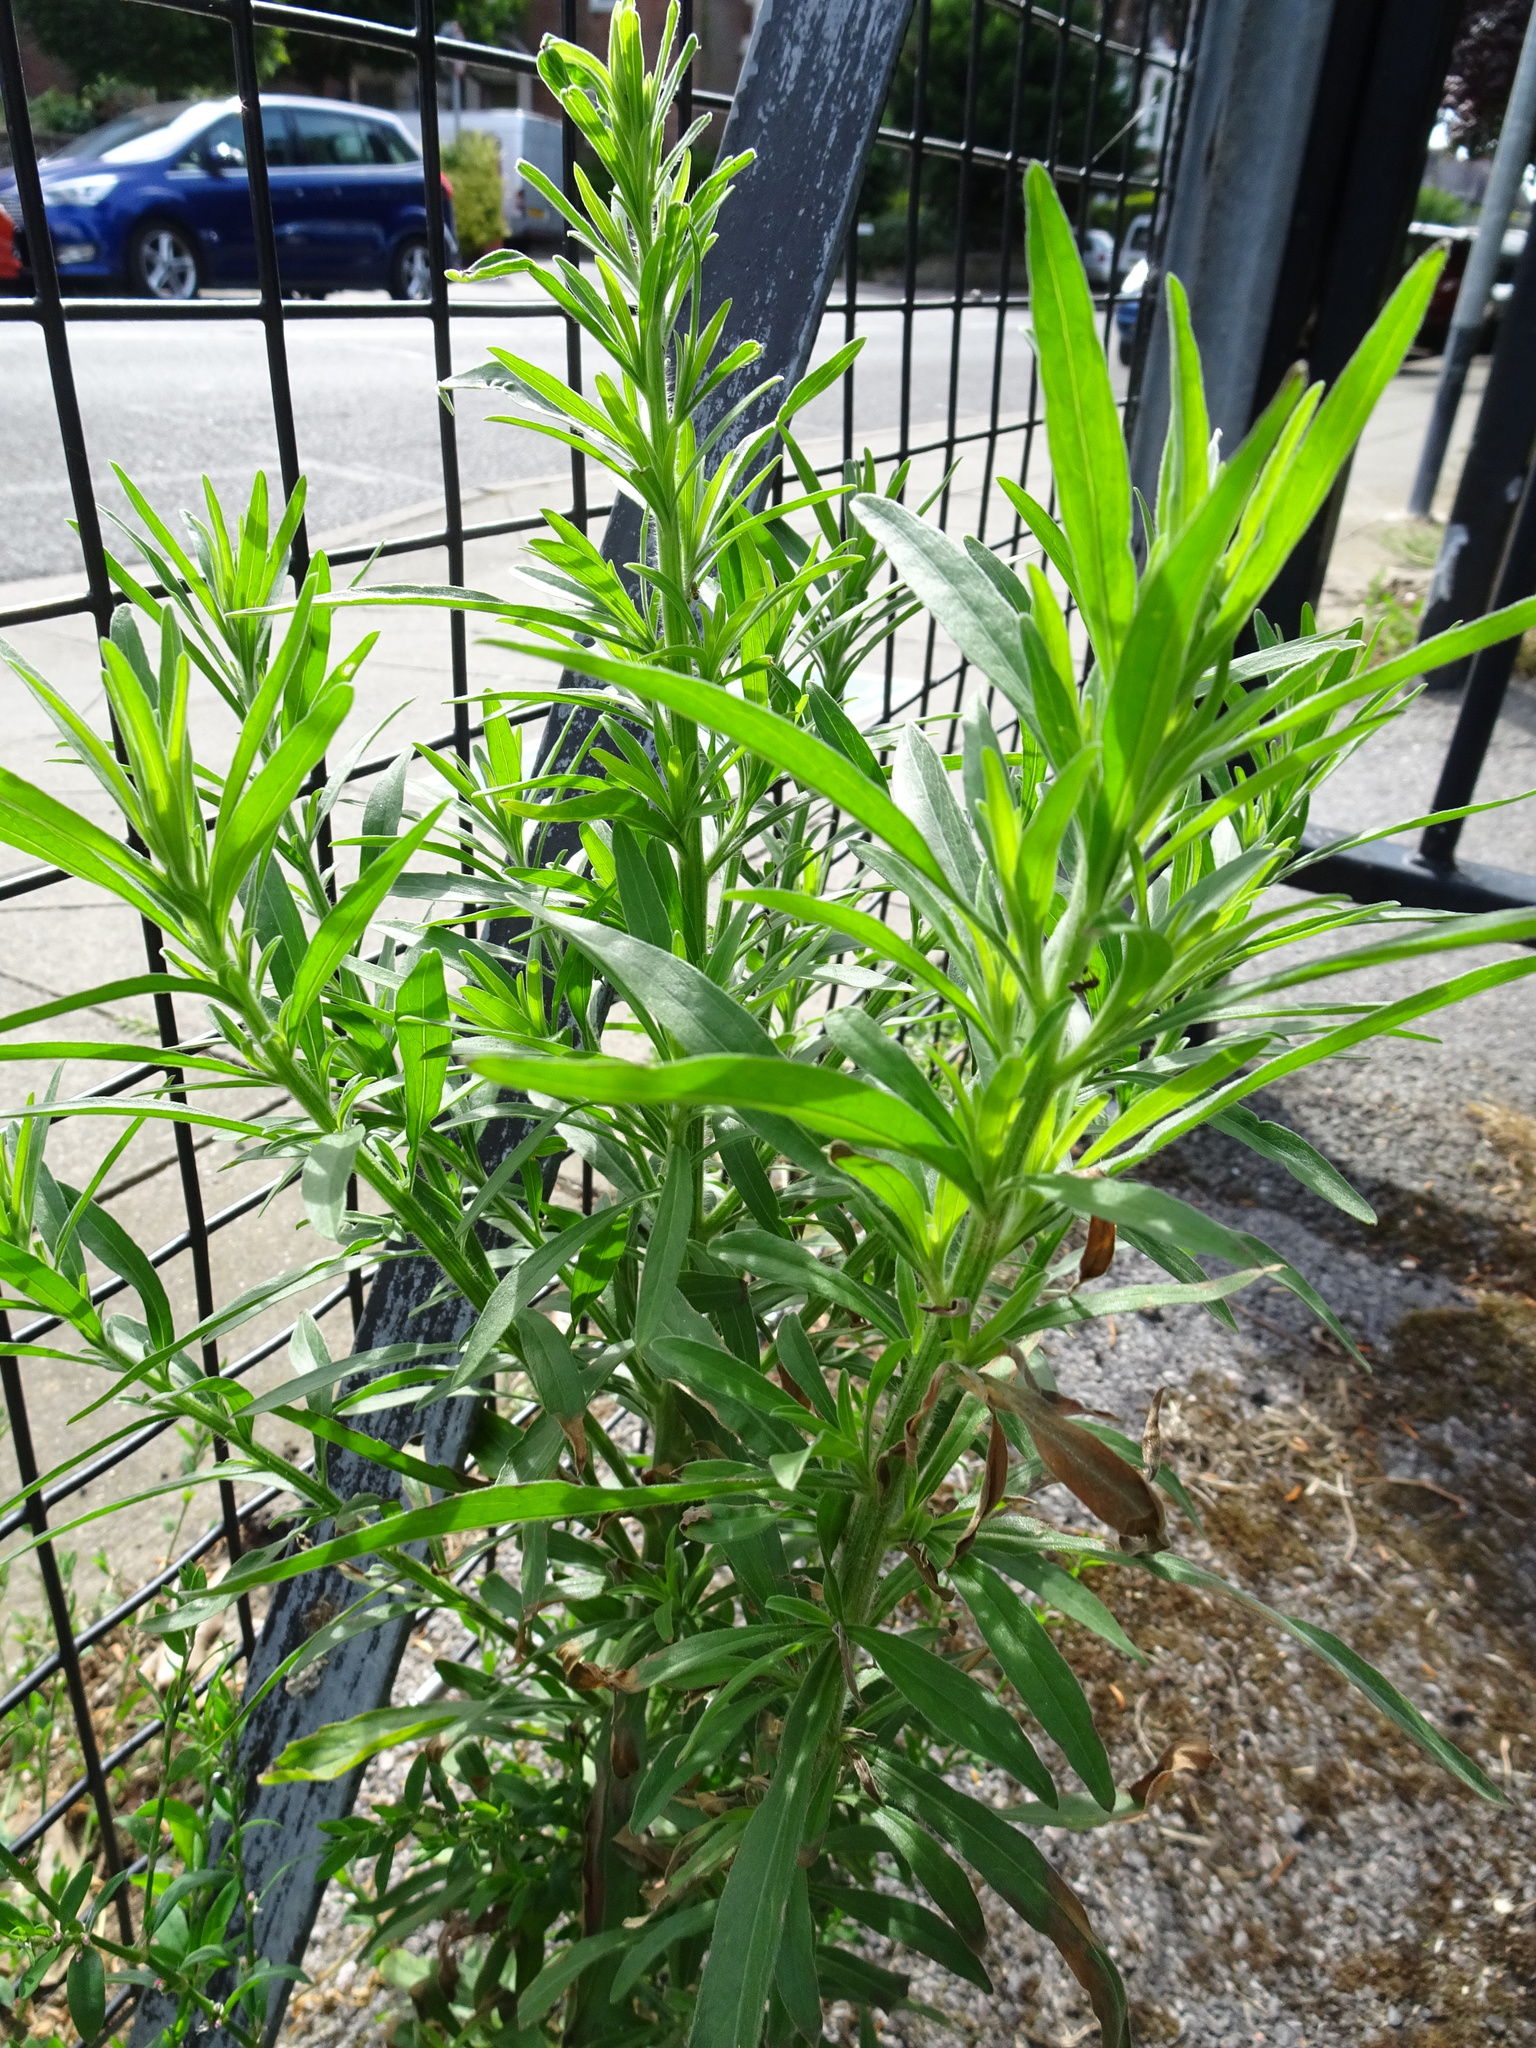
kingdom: Plantae
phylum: Tracheophyta
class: Magnoliopsida
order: Asterales
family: Asteraceae
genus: Erigeron
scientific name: Erigeron sumatrensis
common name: Daisy
